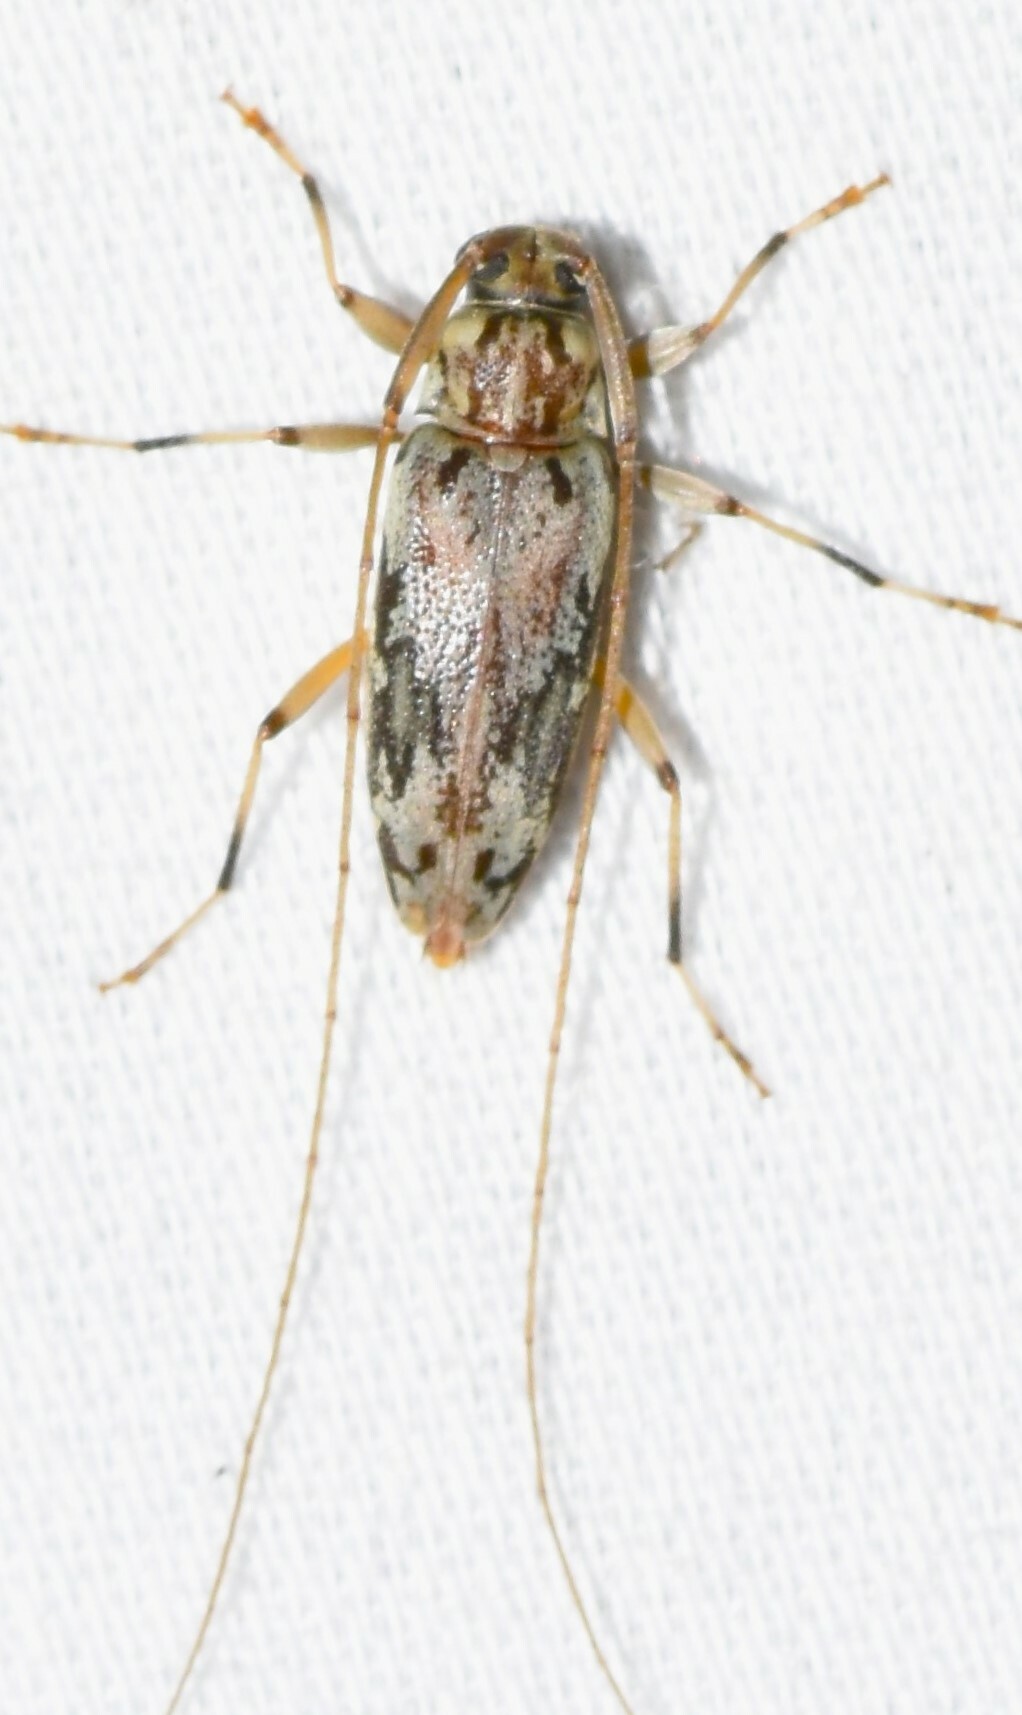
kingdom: Animalia
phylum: Arthropoda
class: Insecta
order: Coleoptera
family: Cerambycidae
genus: Lepturges
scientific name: Lepturges angulatus
